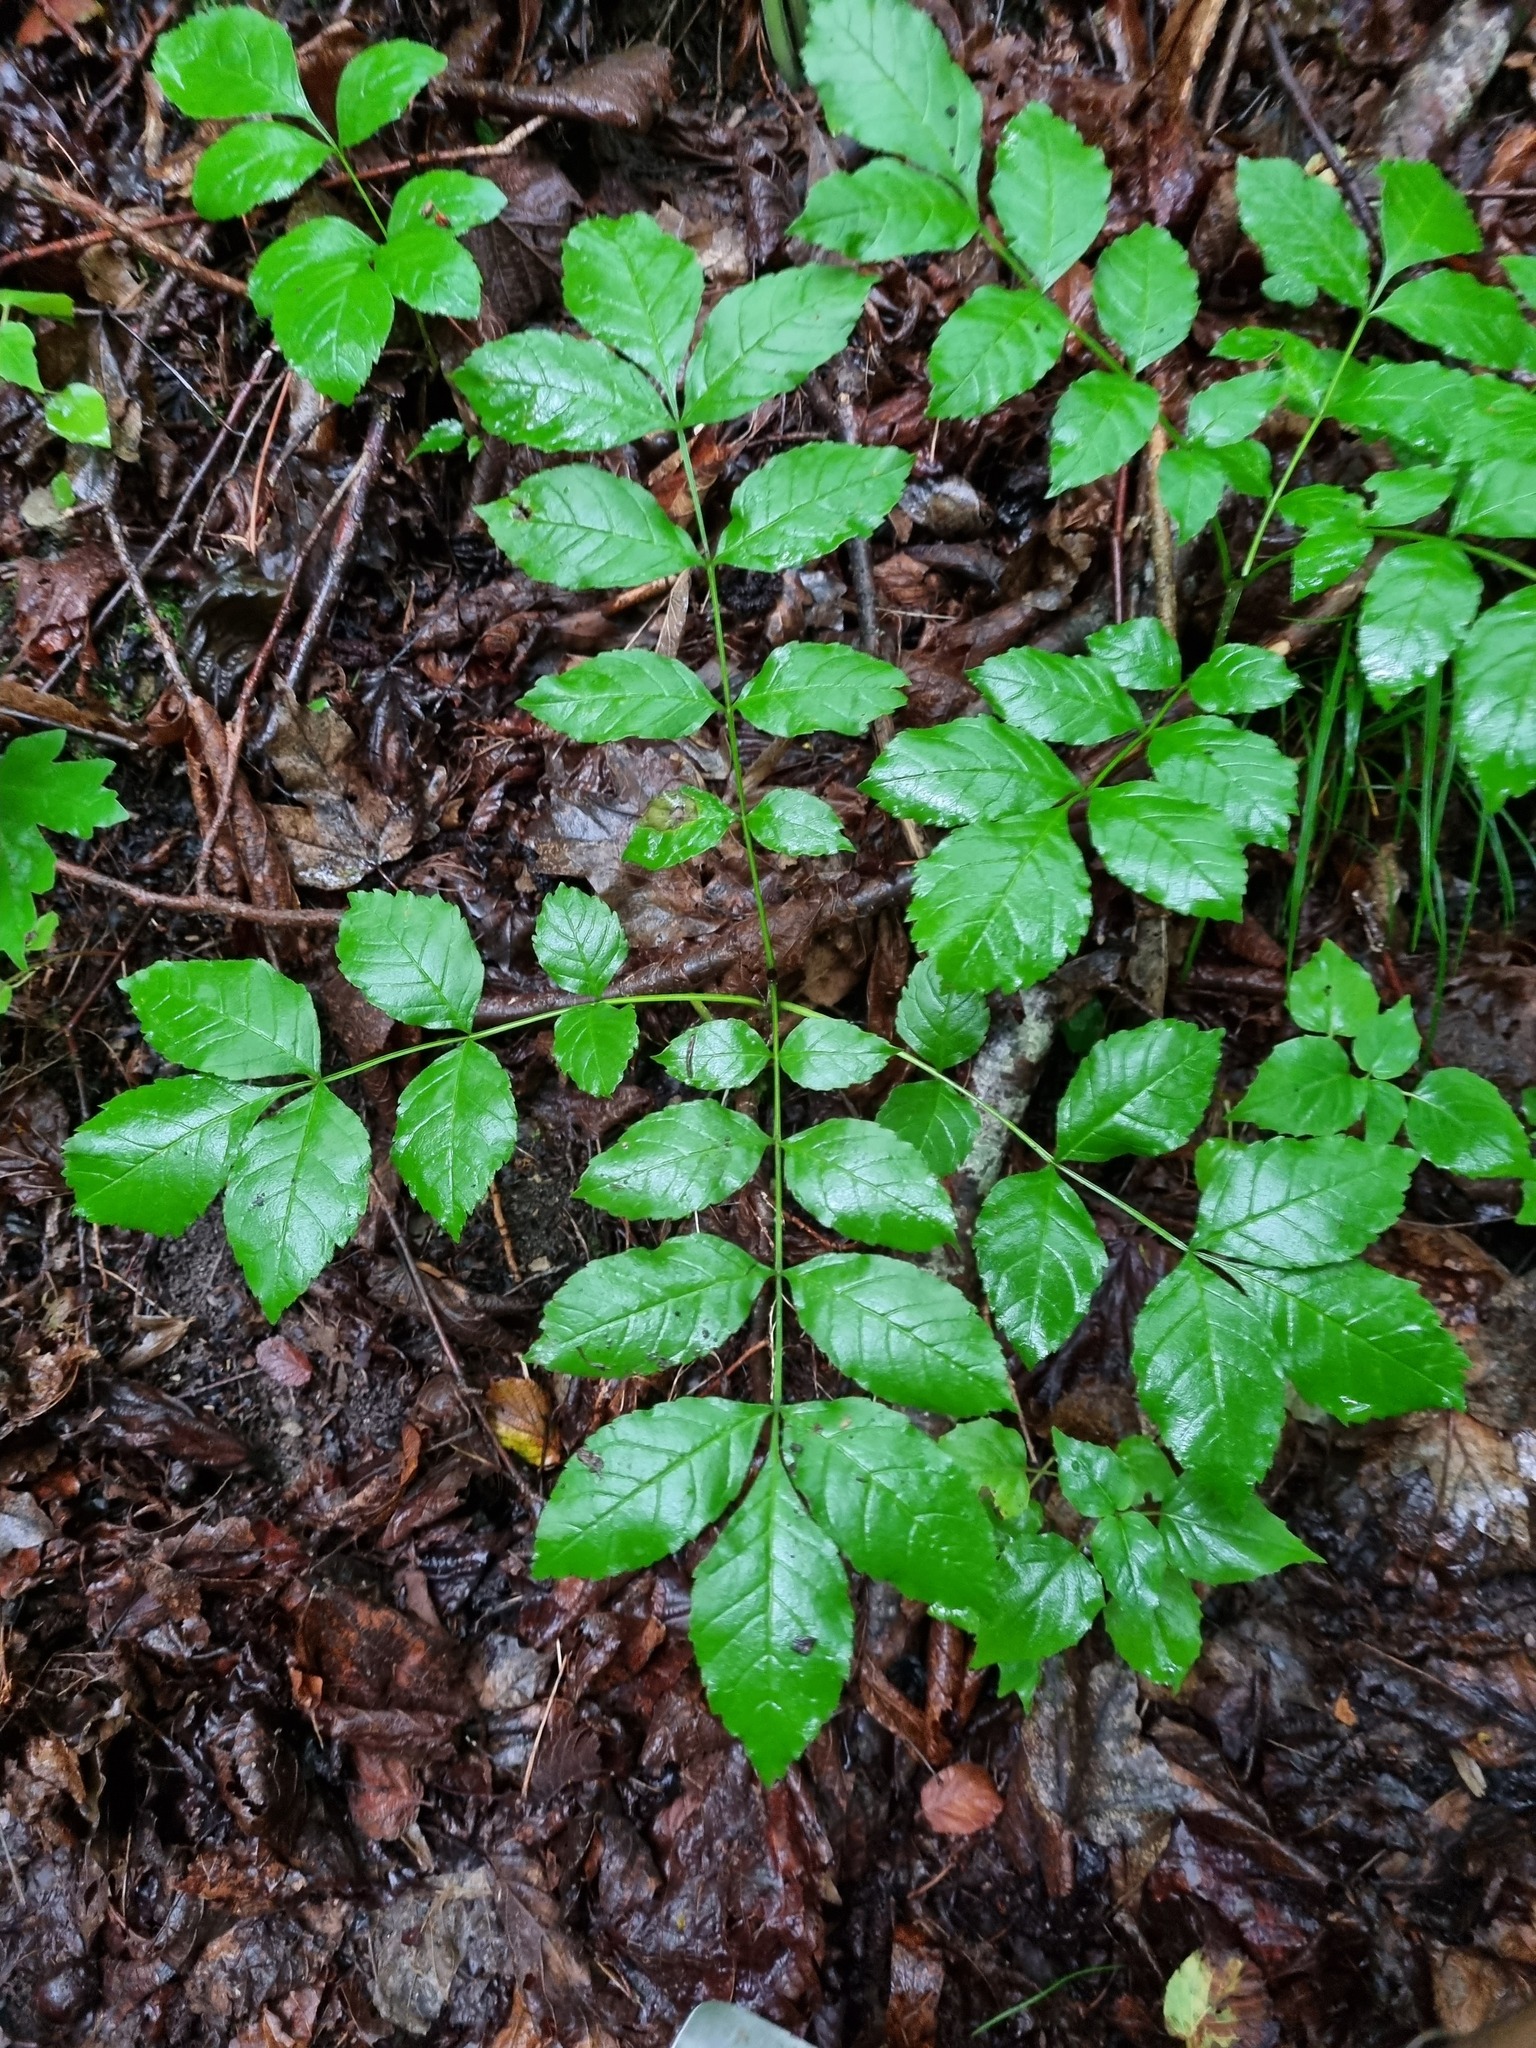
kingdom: Plantae
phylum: Tracheophyta
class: Magnoliopsida
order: Lamiales
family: Oleaceae
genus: Fraxinus
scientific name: Fraxinus excelsior
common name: European ash
